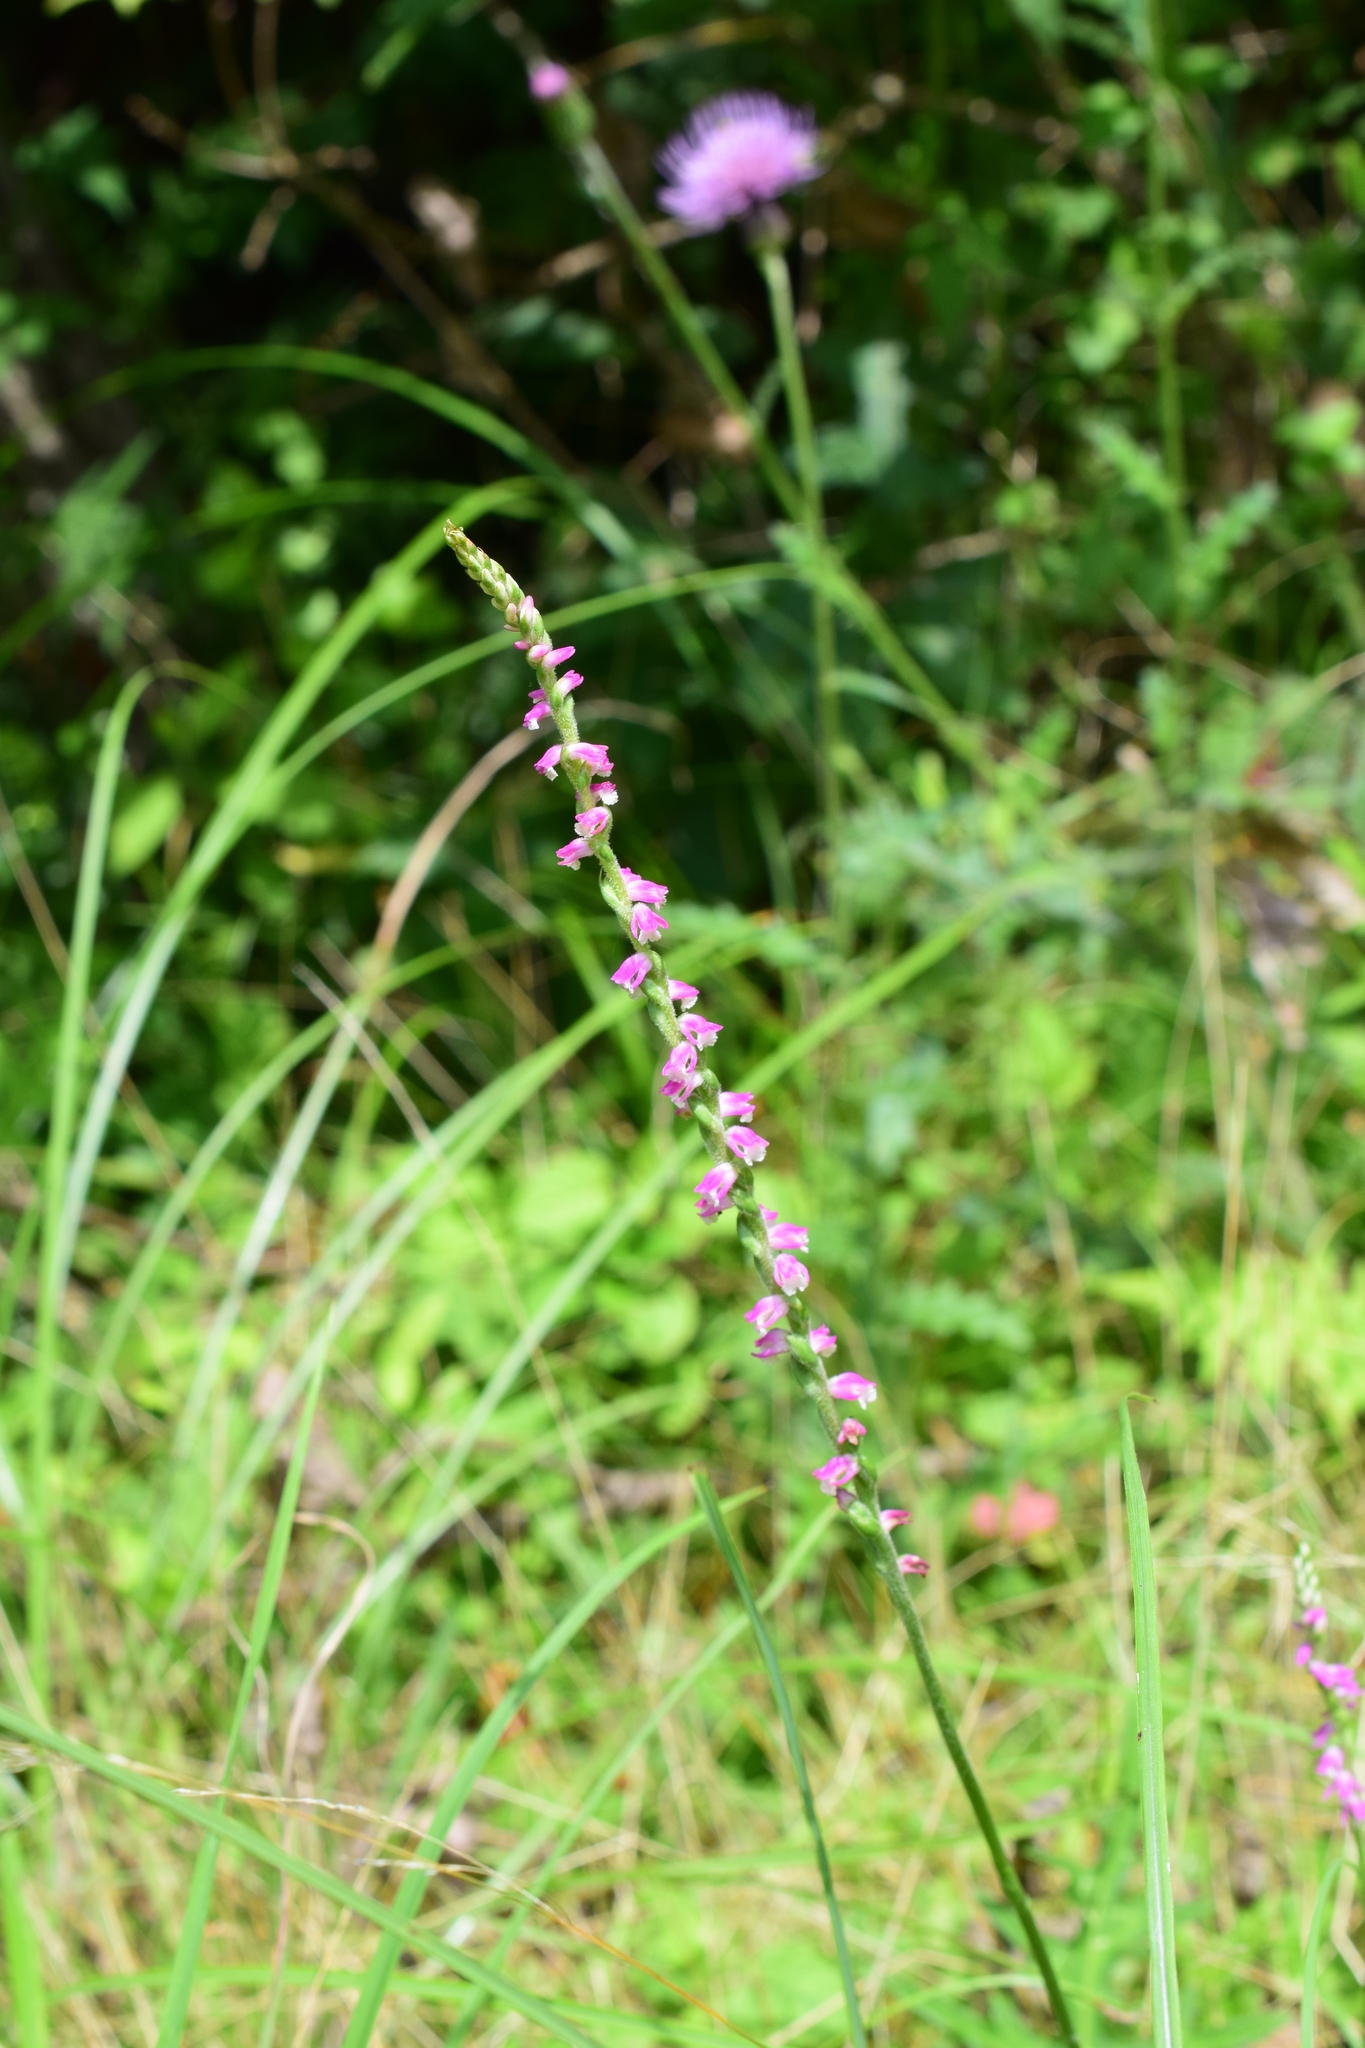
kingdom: Plantae
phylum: Tracheophyta
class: Liliopsida
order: Asparagales
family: Orchidaceae
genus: Spiranthes
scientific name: Spiranthes australis
